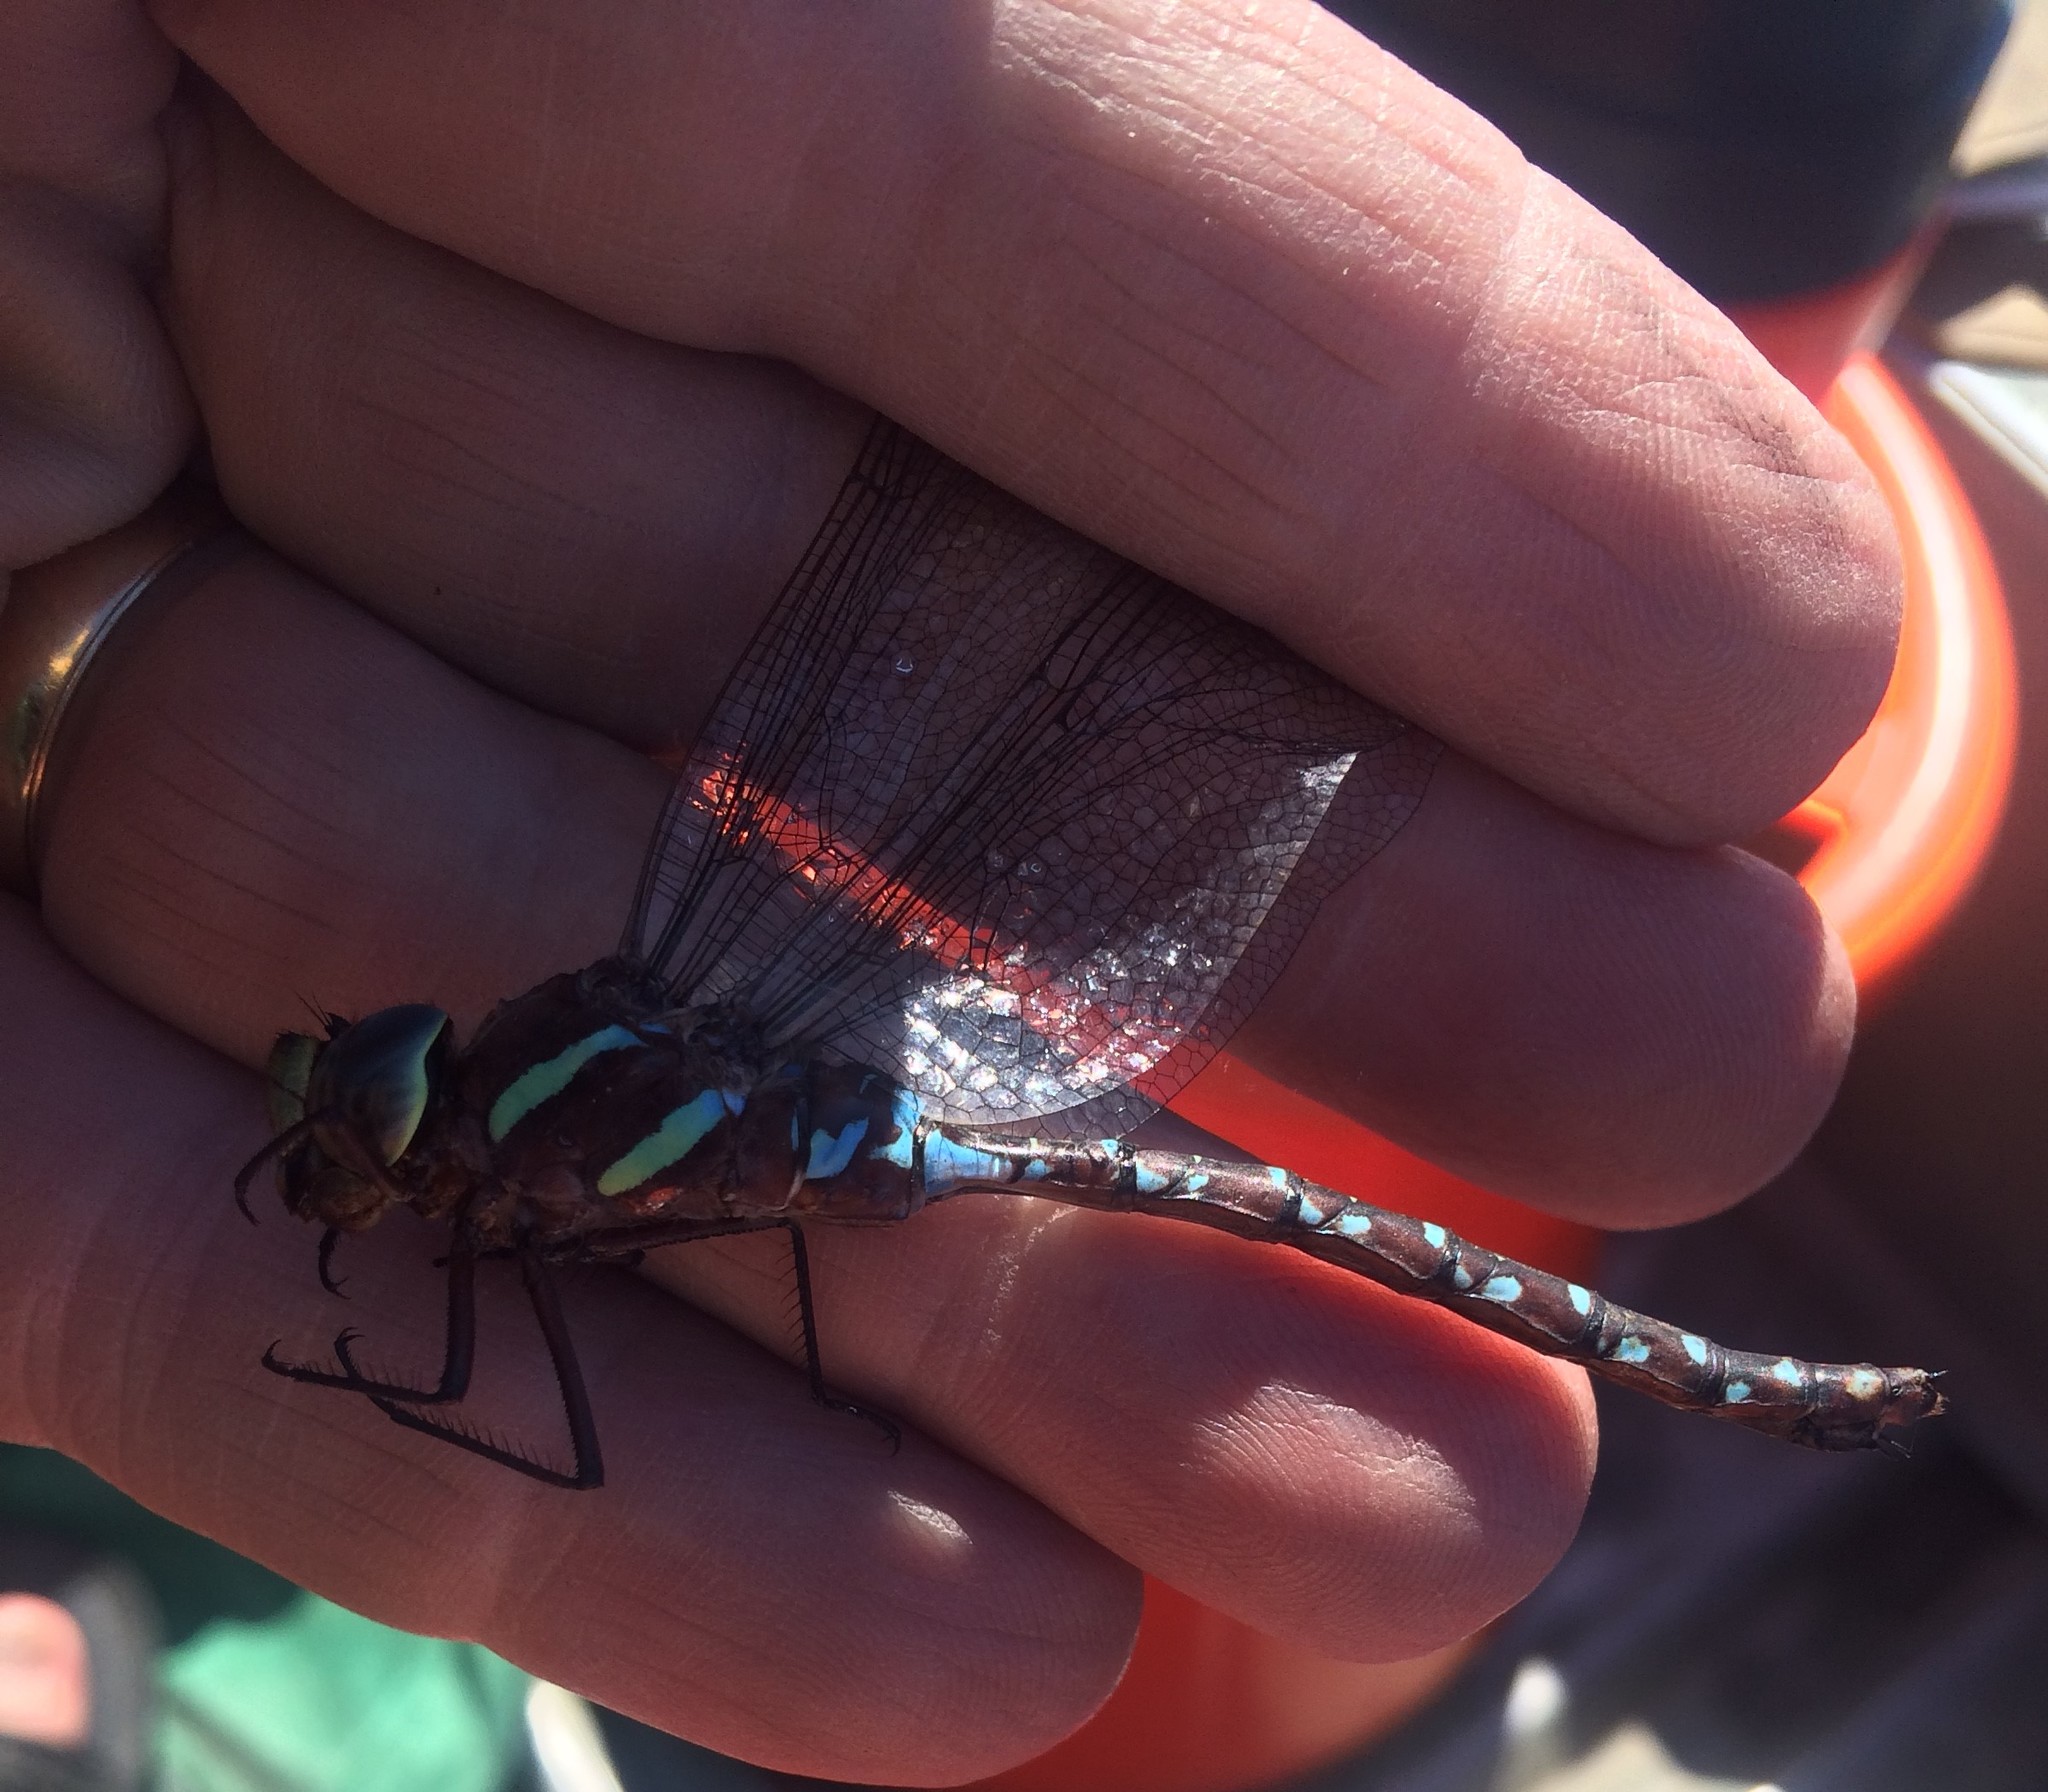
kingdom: Animalia
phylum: Arthropoda
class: Insecta
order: Odonata
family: Aeshnidae
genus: Aeshna
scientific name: Aeshna tuberculifera
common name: Aeschne à tubercules
